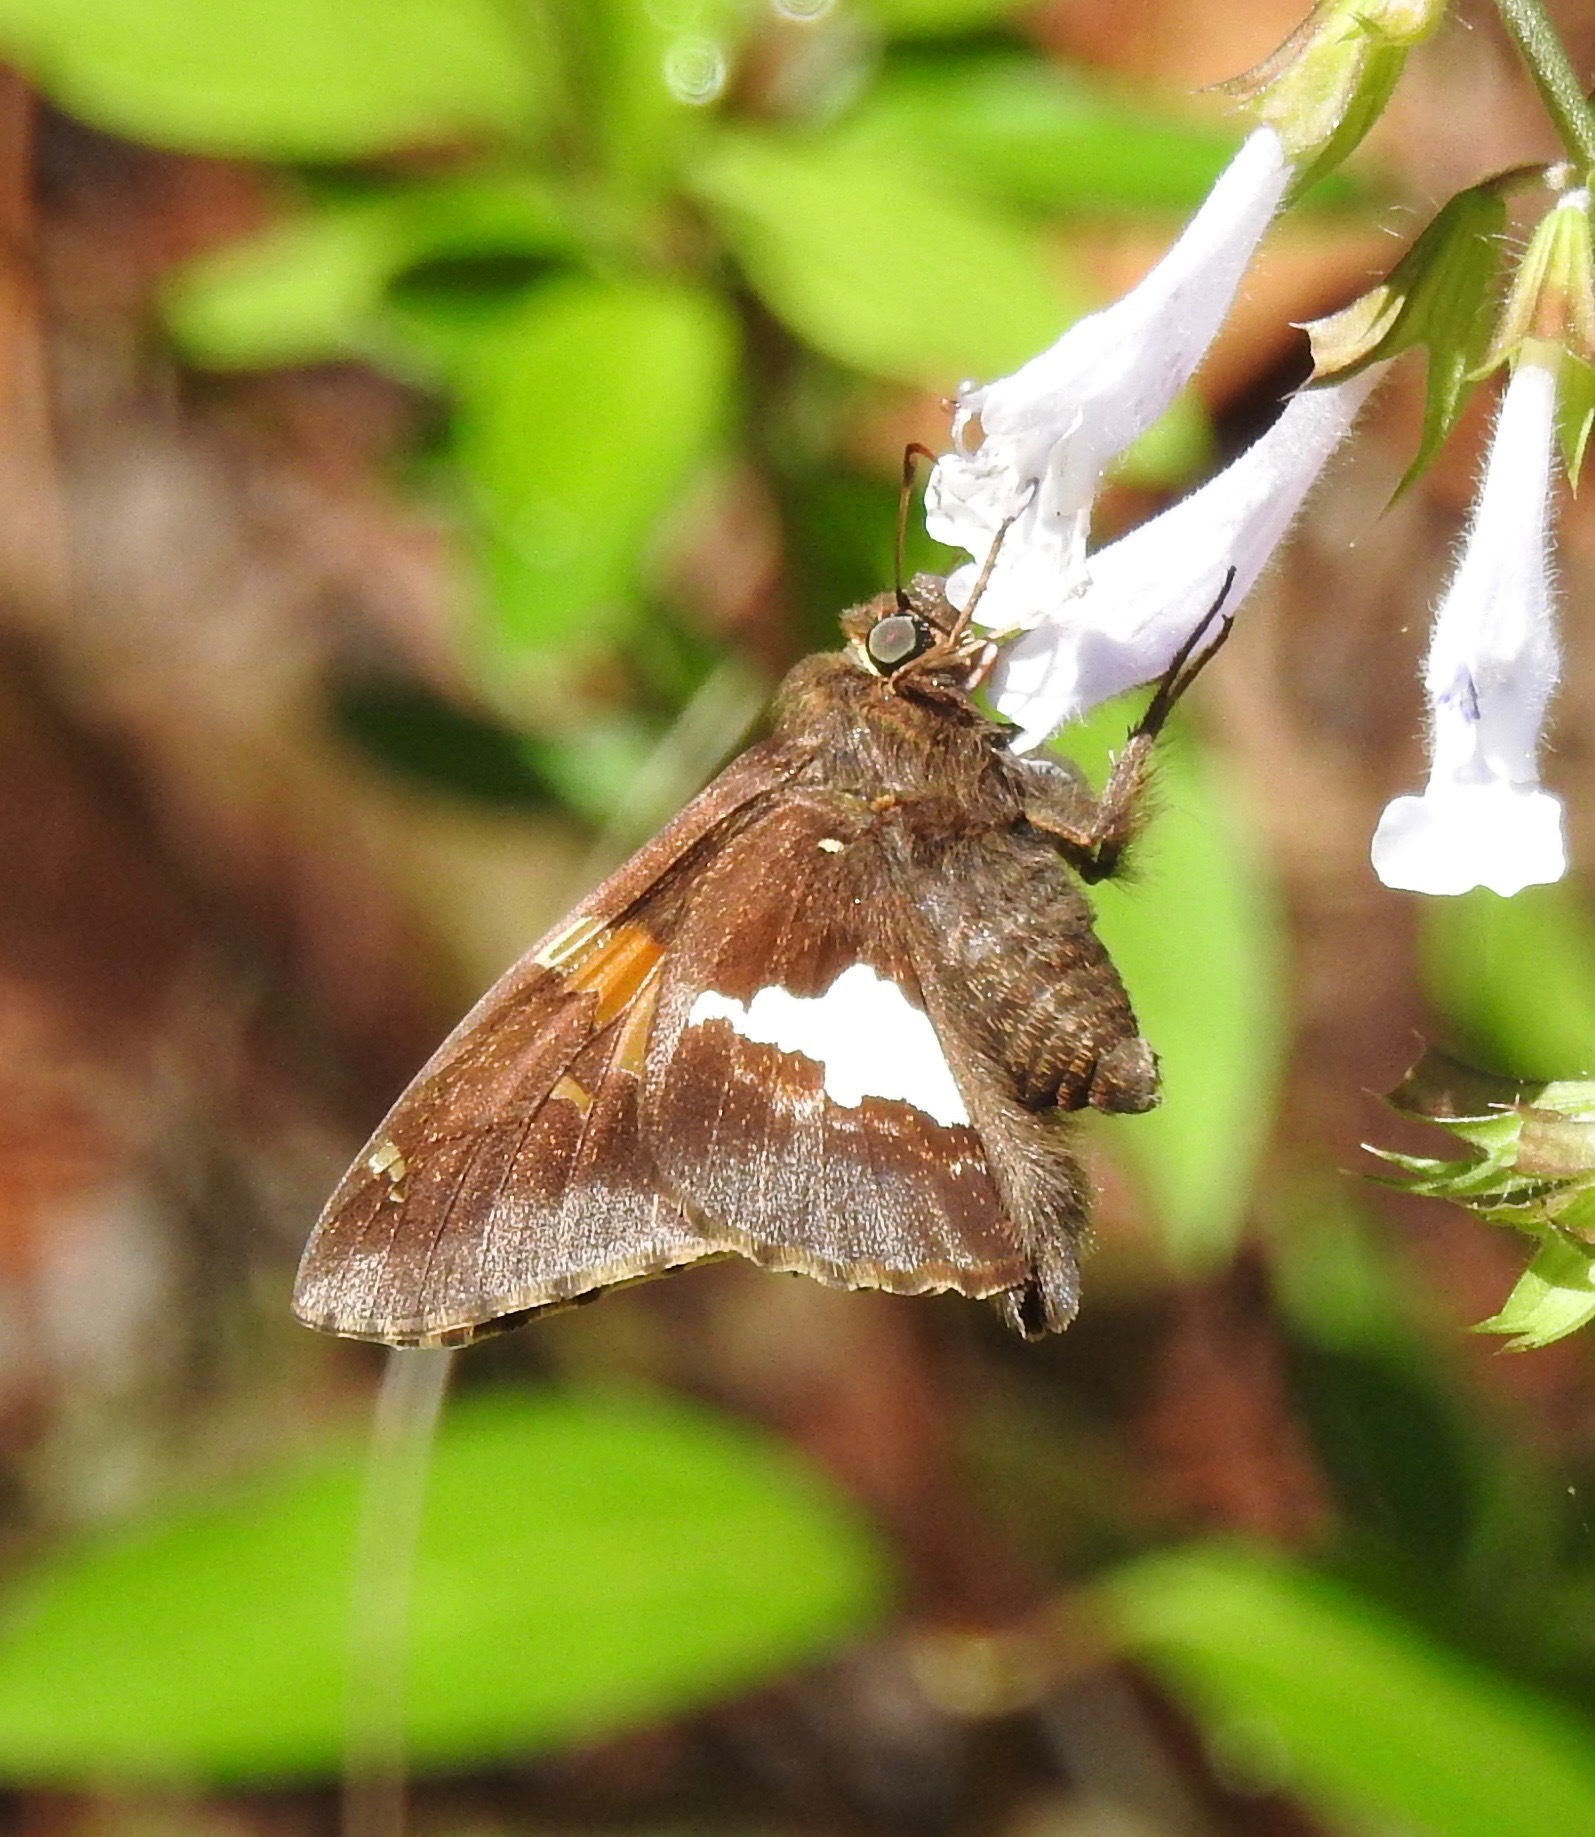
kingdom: Animalia
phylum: Arthropoda
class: Insecta
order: Lepidoptera
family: Hesperiidae
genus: Epargyreus
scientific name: Epargyreus clarus
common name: Silver-spotted skipper
